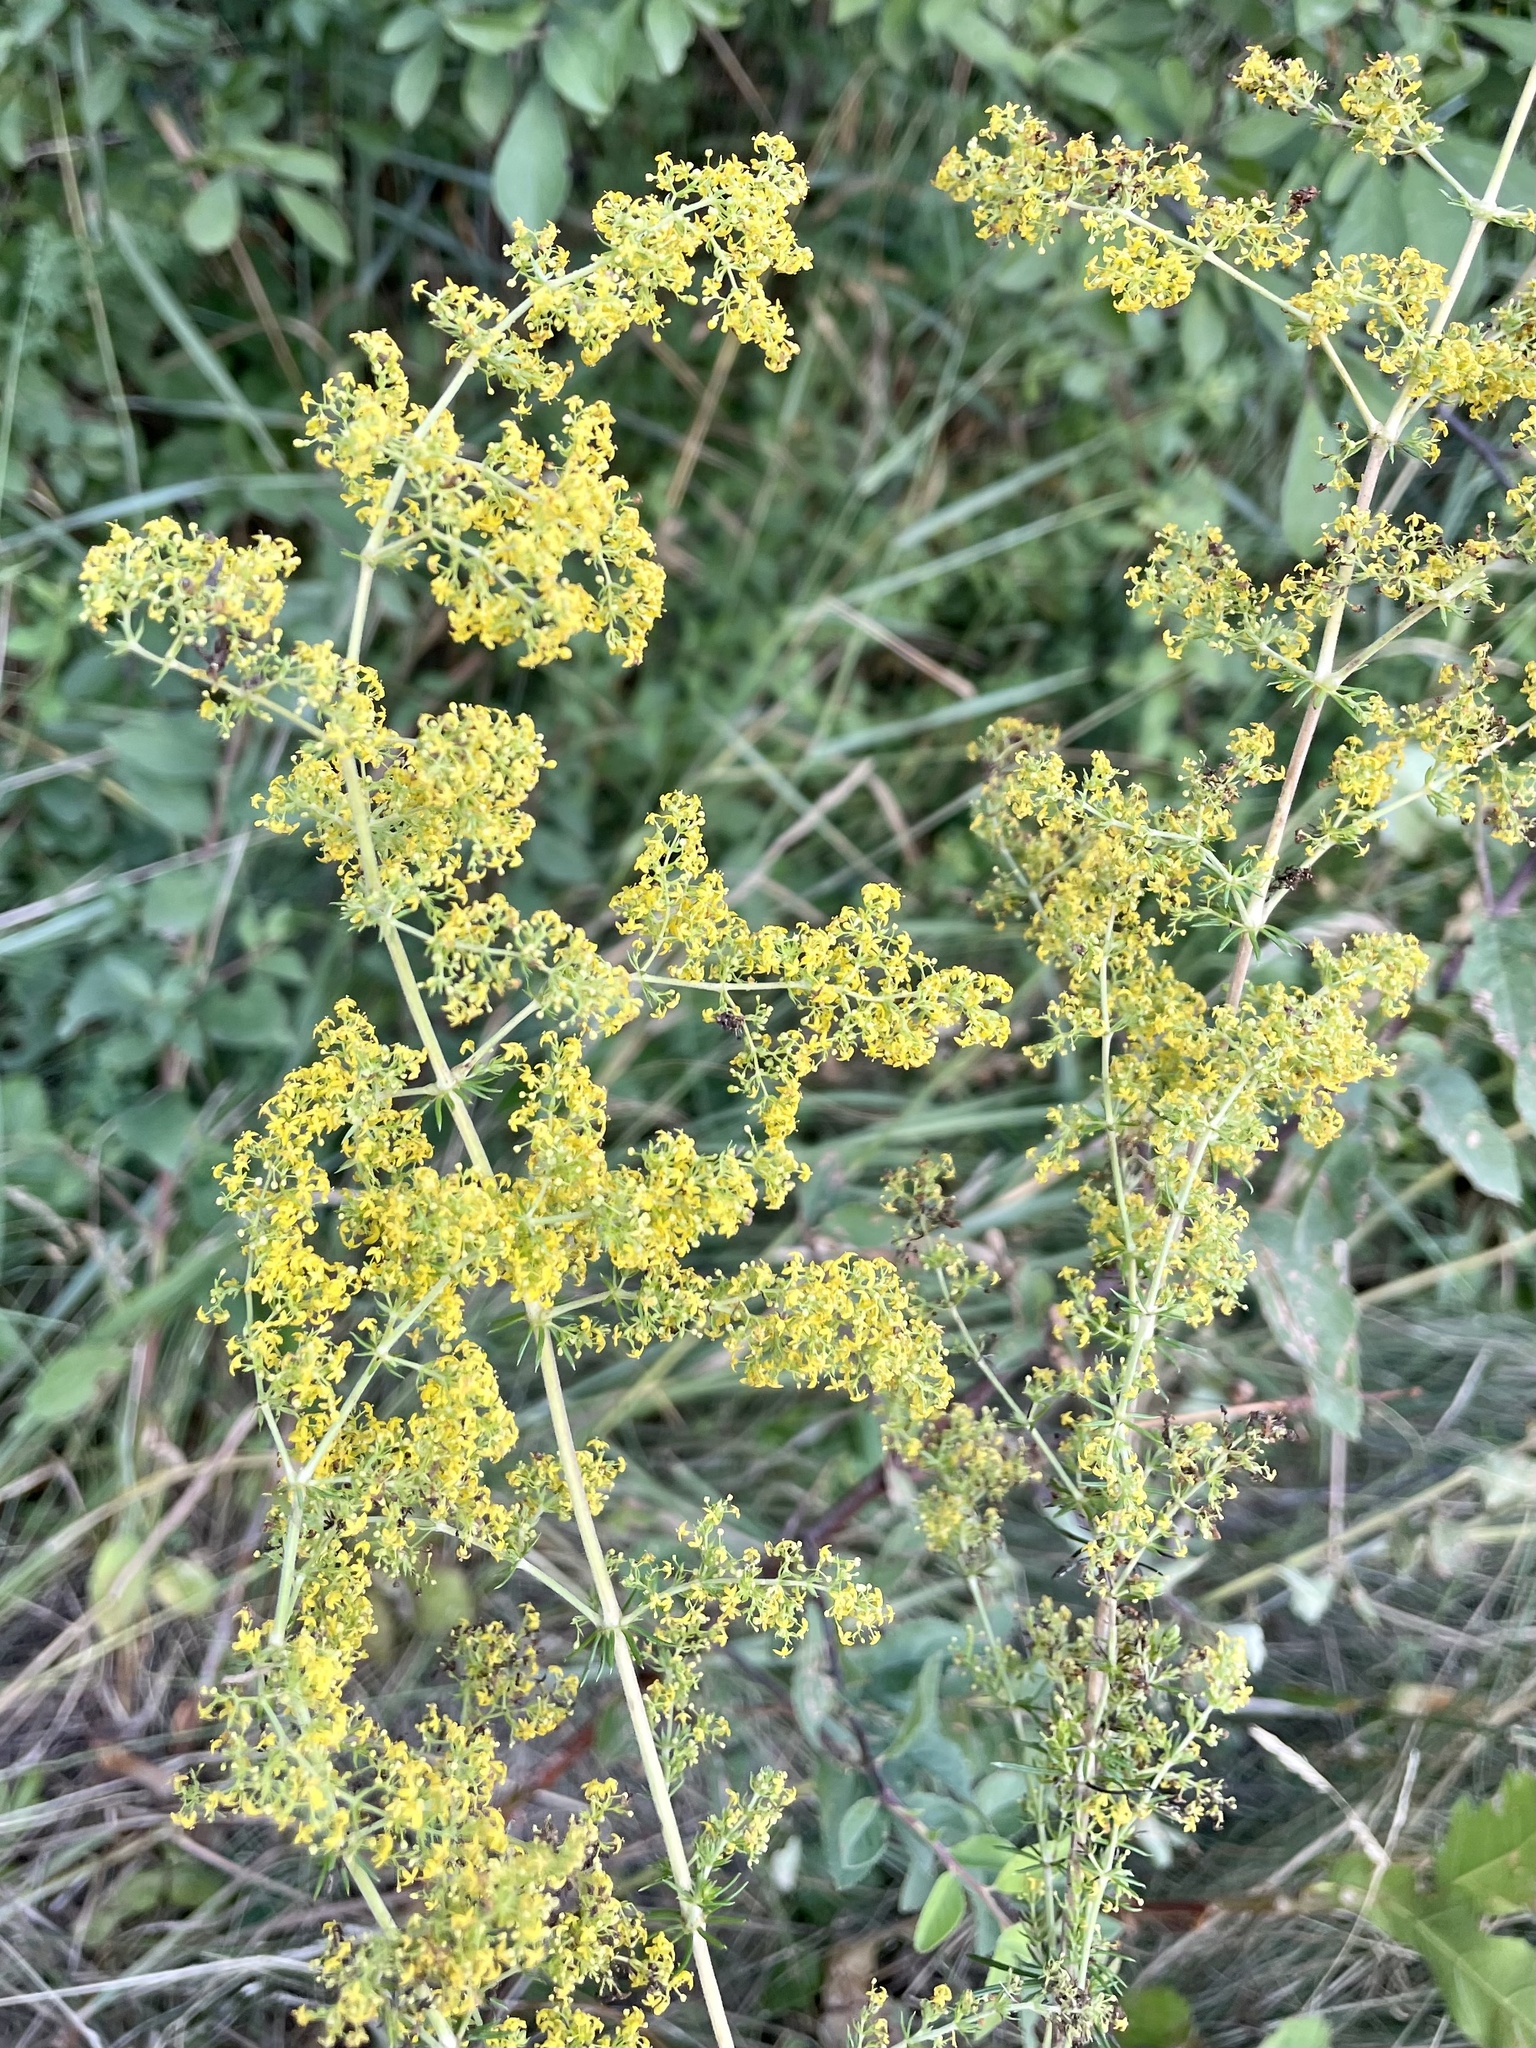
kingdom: Plantae
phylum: Tracheophyta
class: Magnoliopsida
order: Gentianales
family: Rubiaceae
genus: Galium
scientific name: Galium verum
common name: Lady's bedstraw
